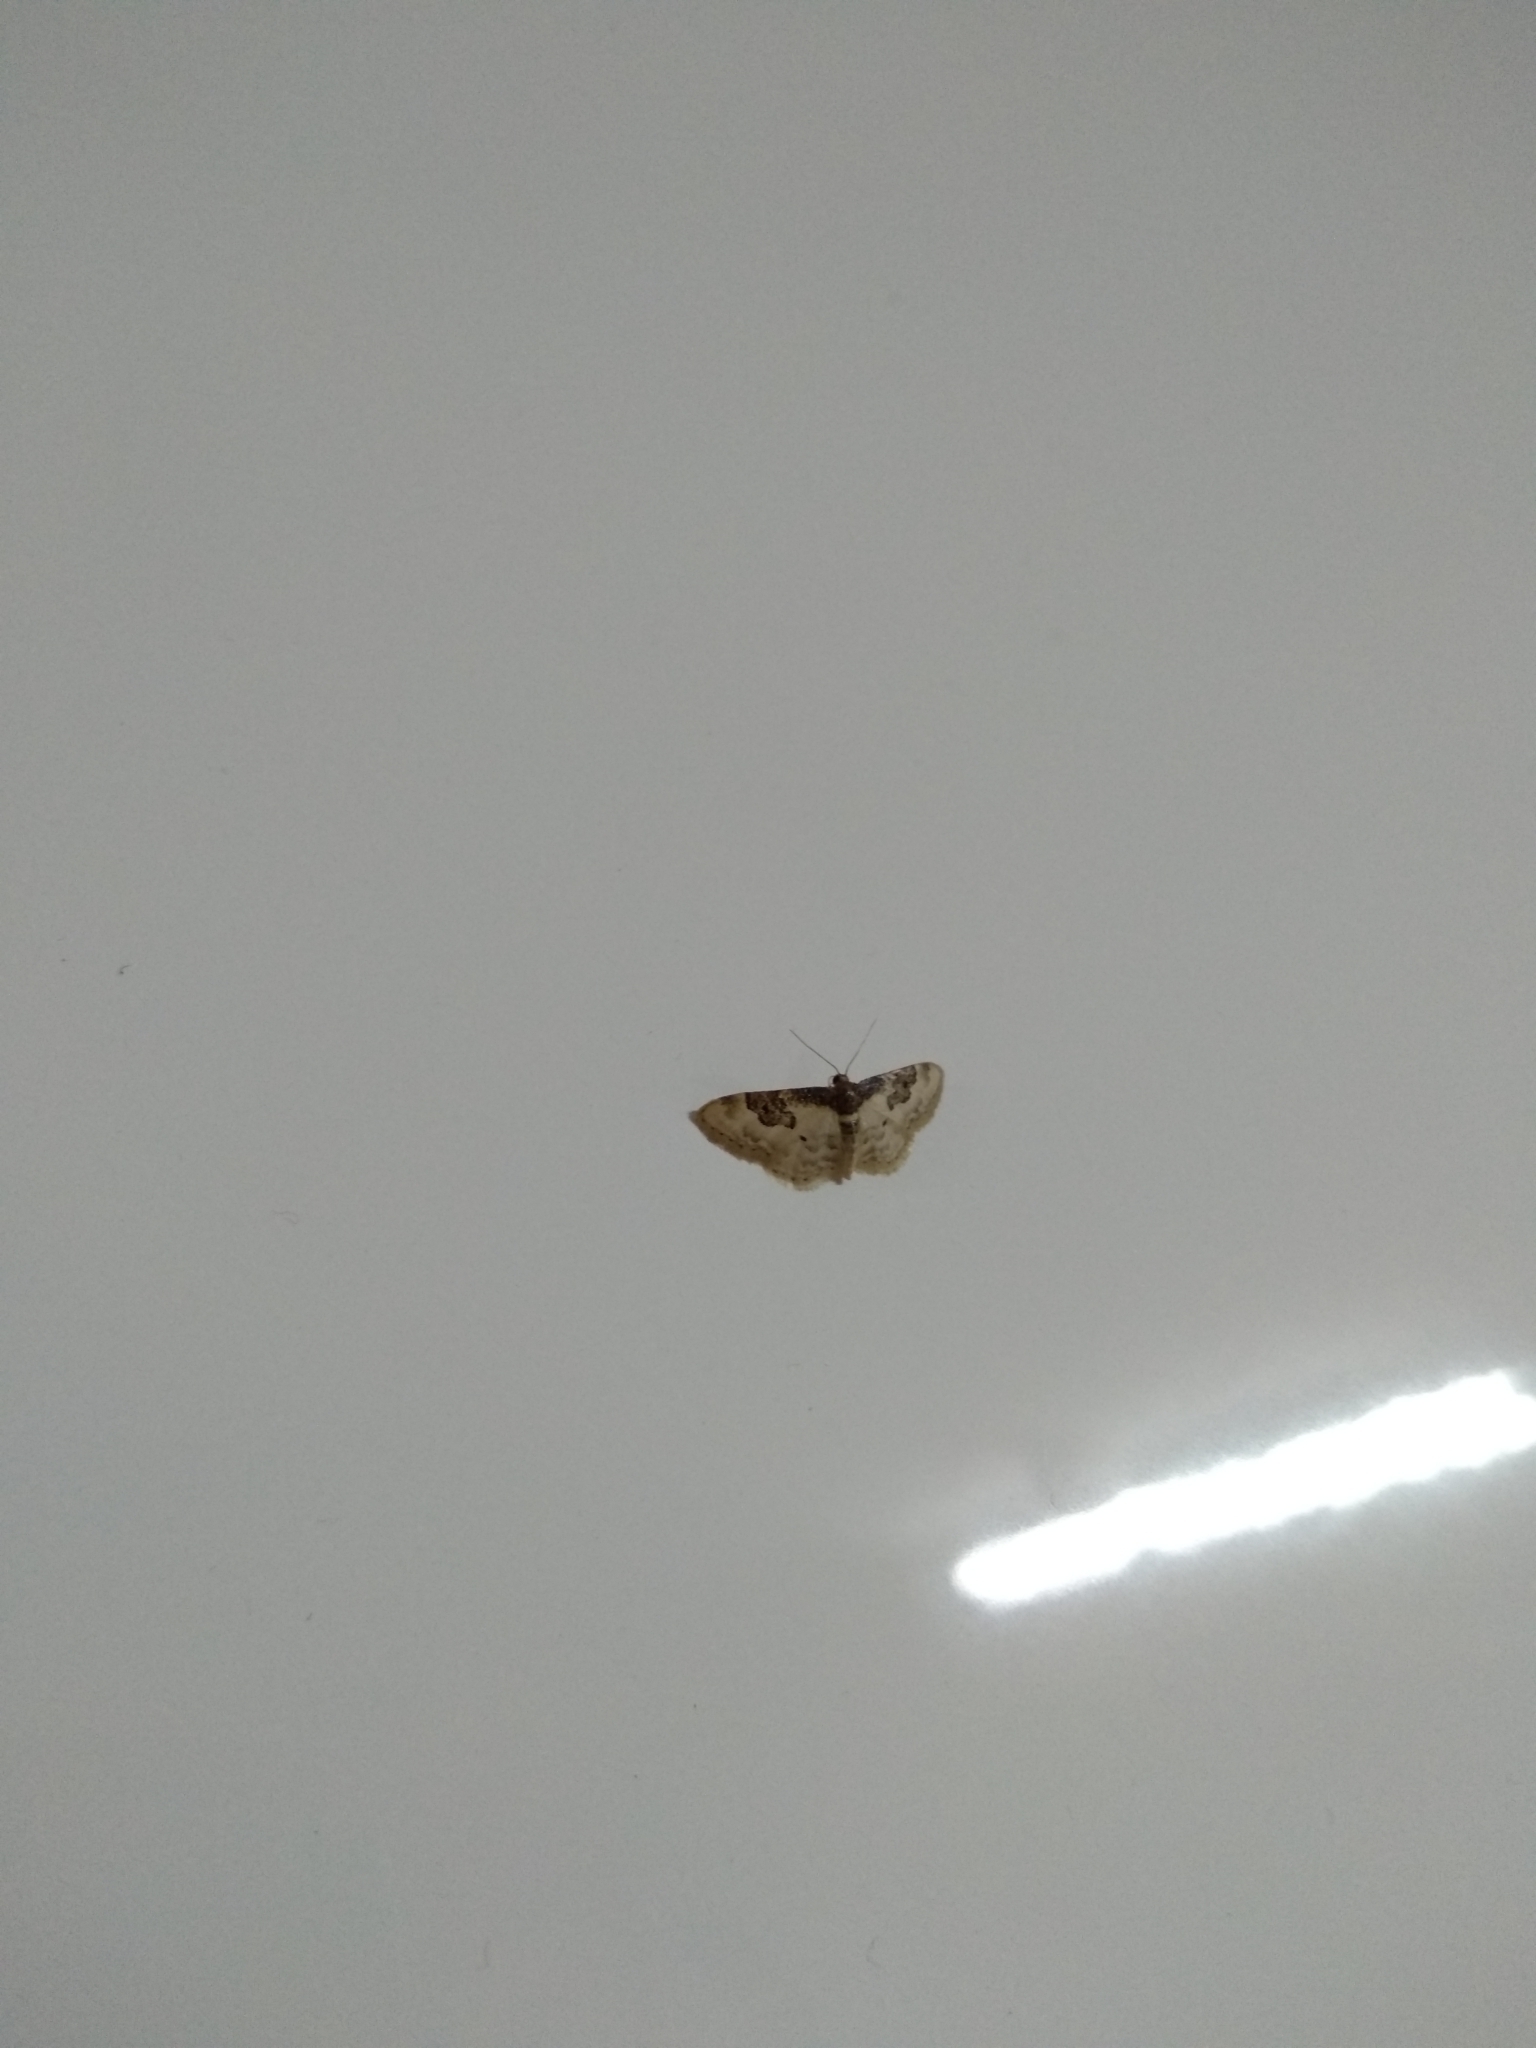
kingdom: Animalia
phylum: Arthropoda
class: Insecta
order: Lepidoptera
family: Geometridae
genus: Idaea
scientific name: Idaea rusticata
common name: Least carpet
